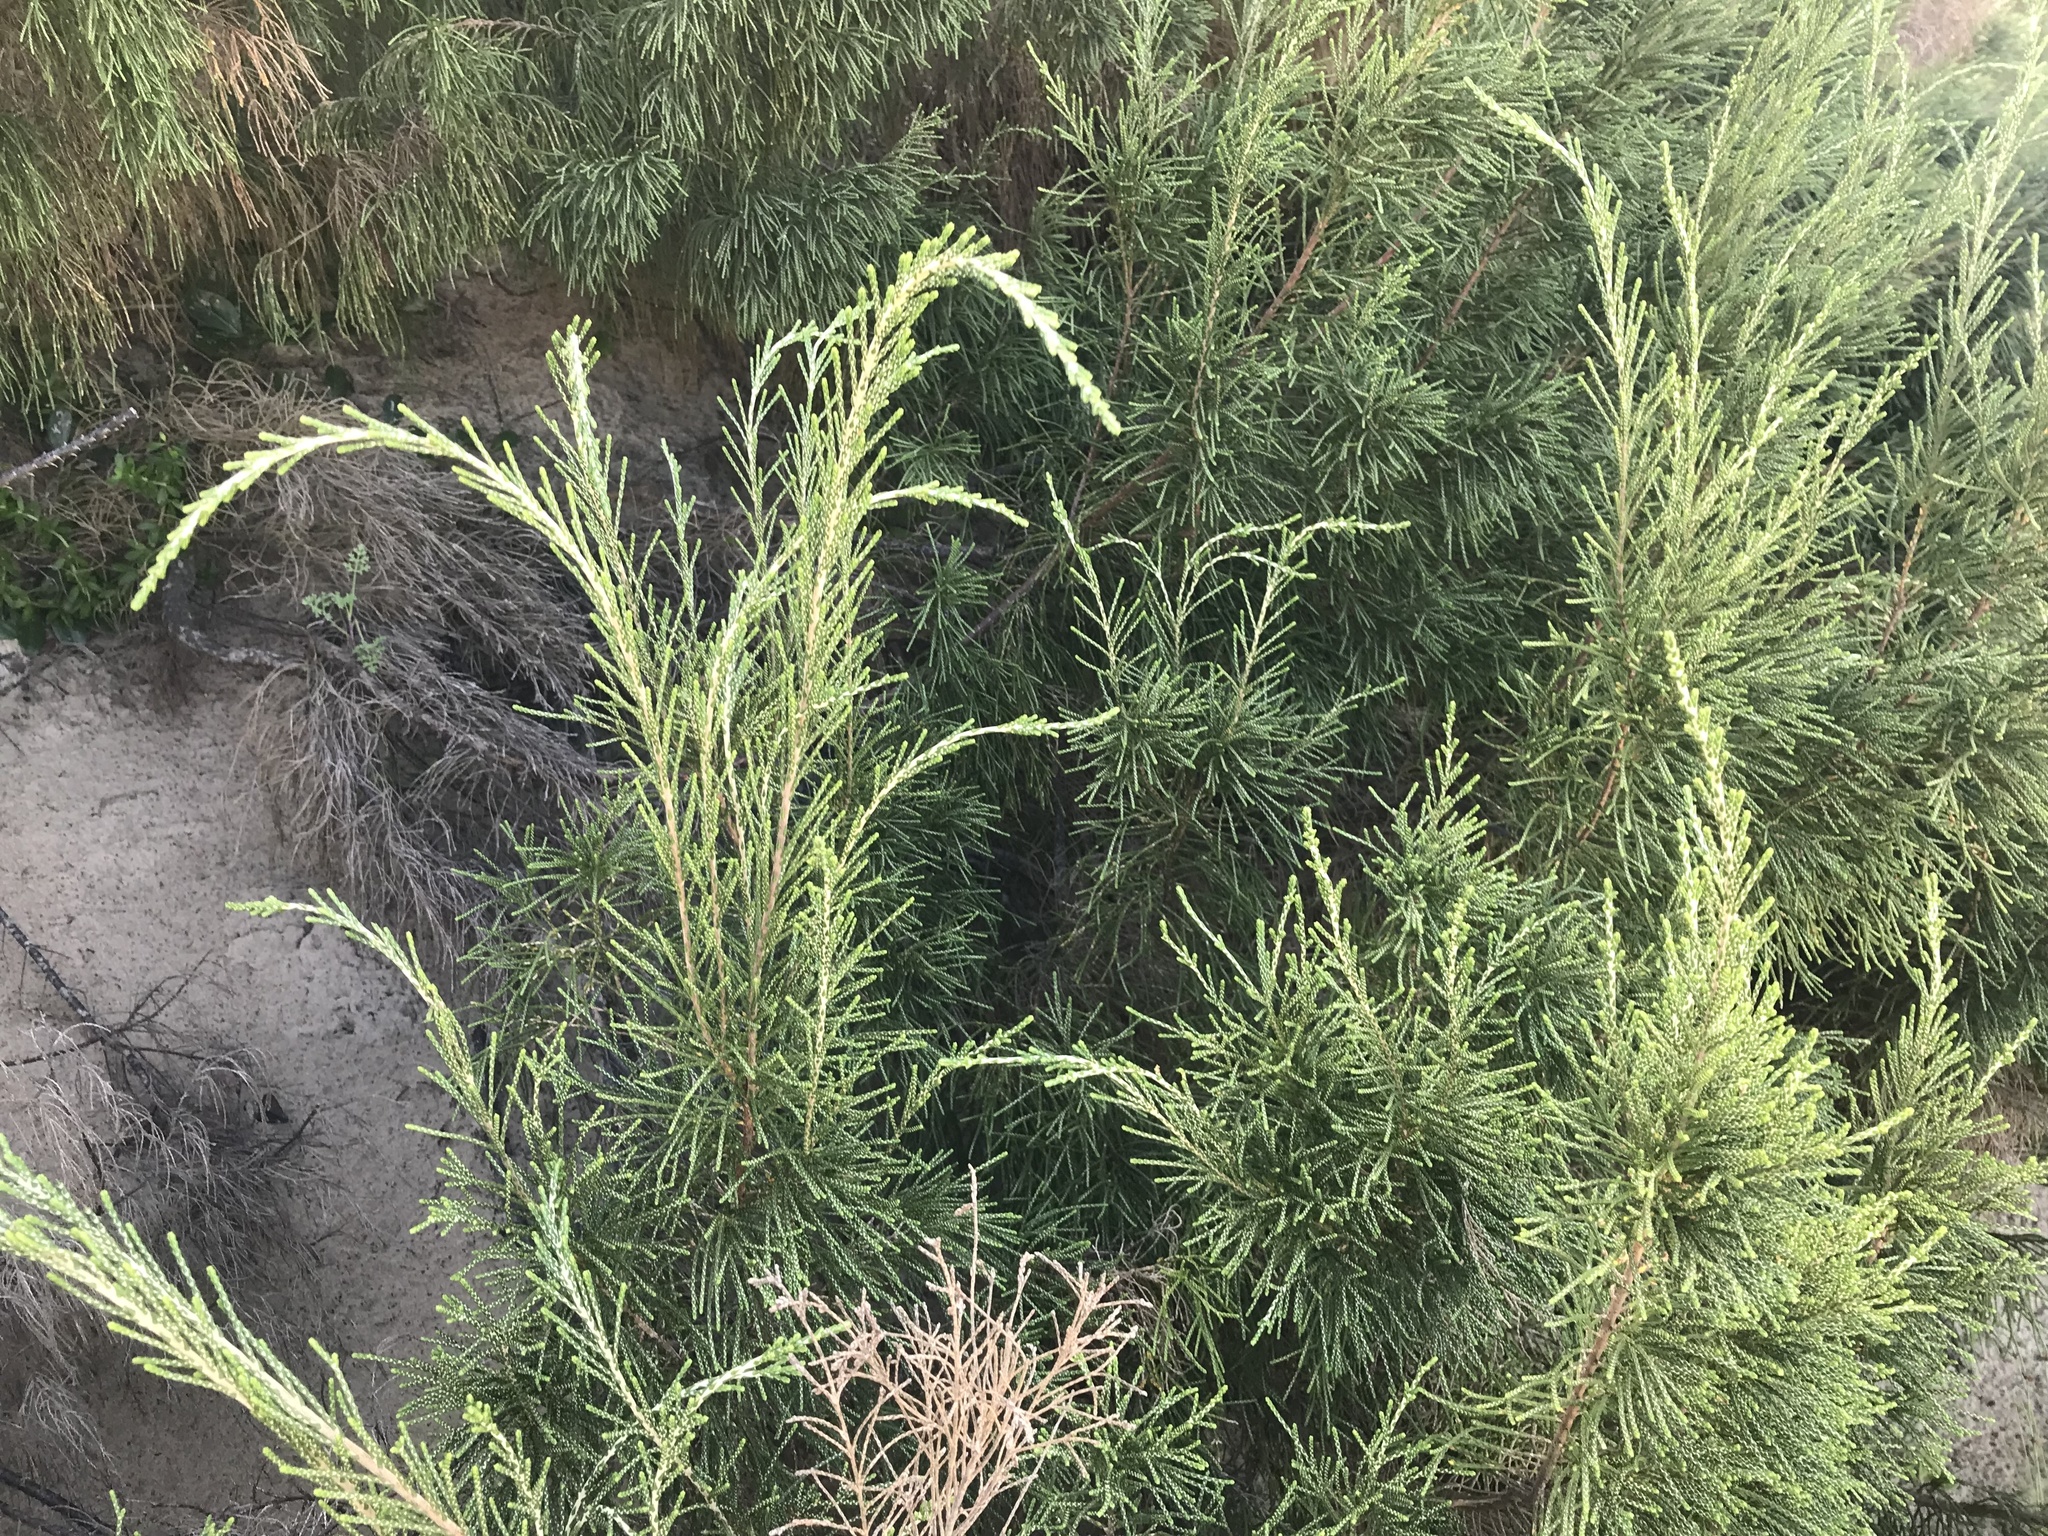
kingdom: Plantae
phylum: Tracheophyta
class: Magnoliopsida
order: Malvales
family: Thymelaeaceae
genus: Passerina
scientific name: Passerina rigida
